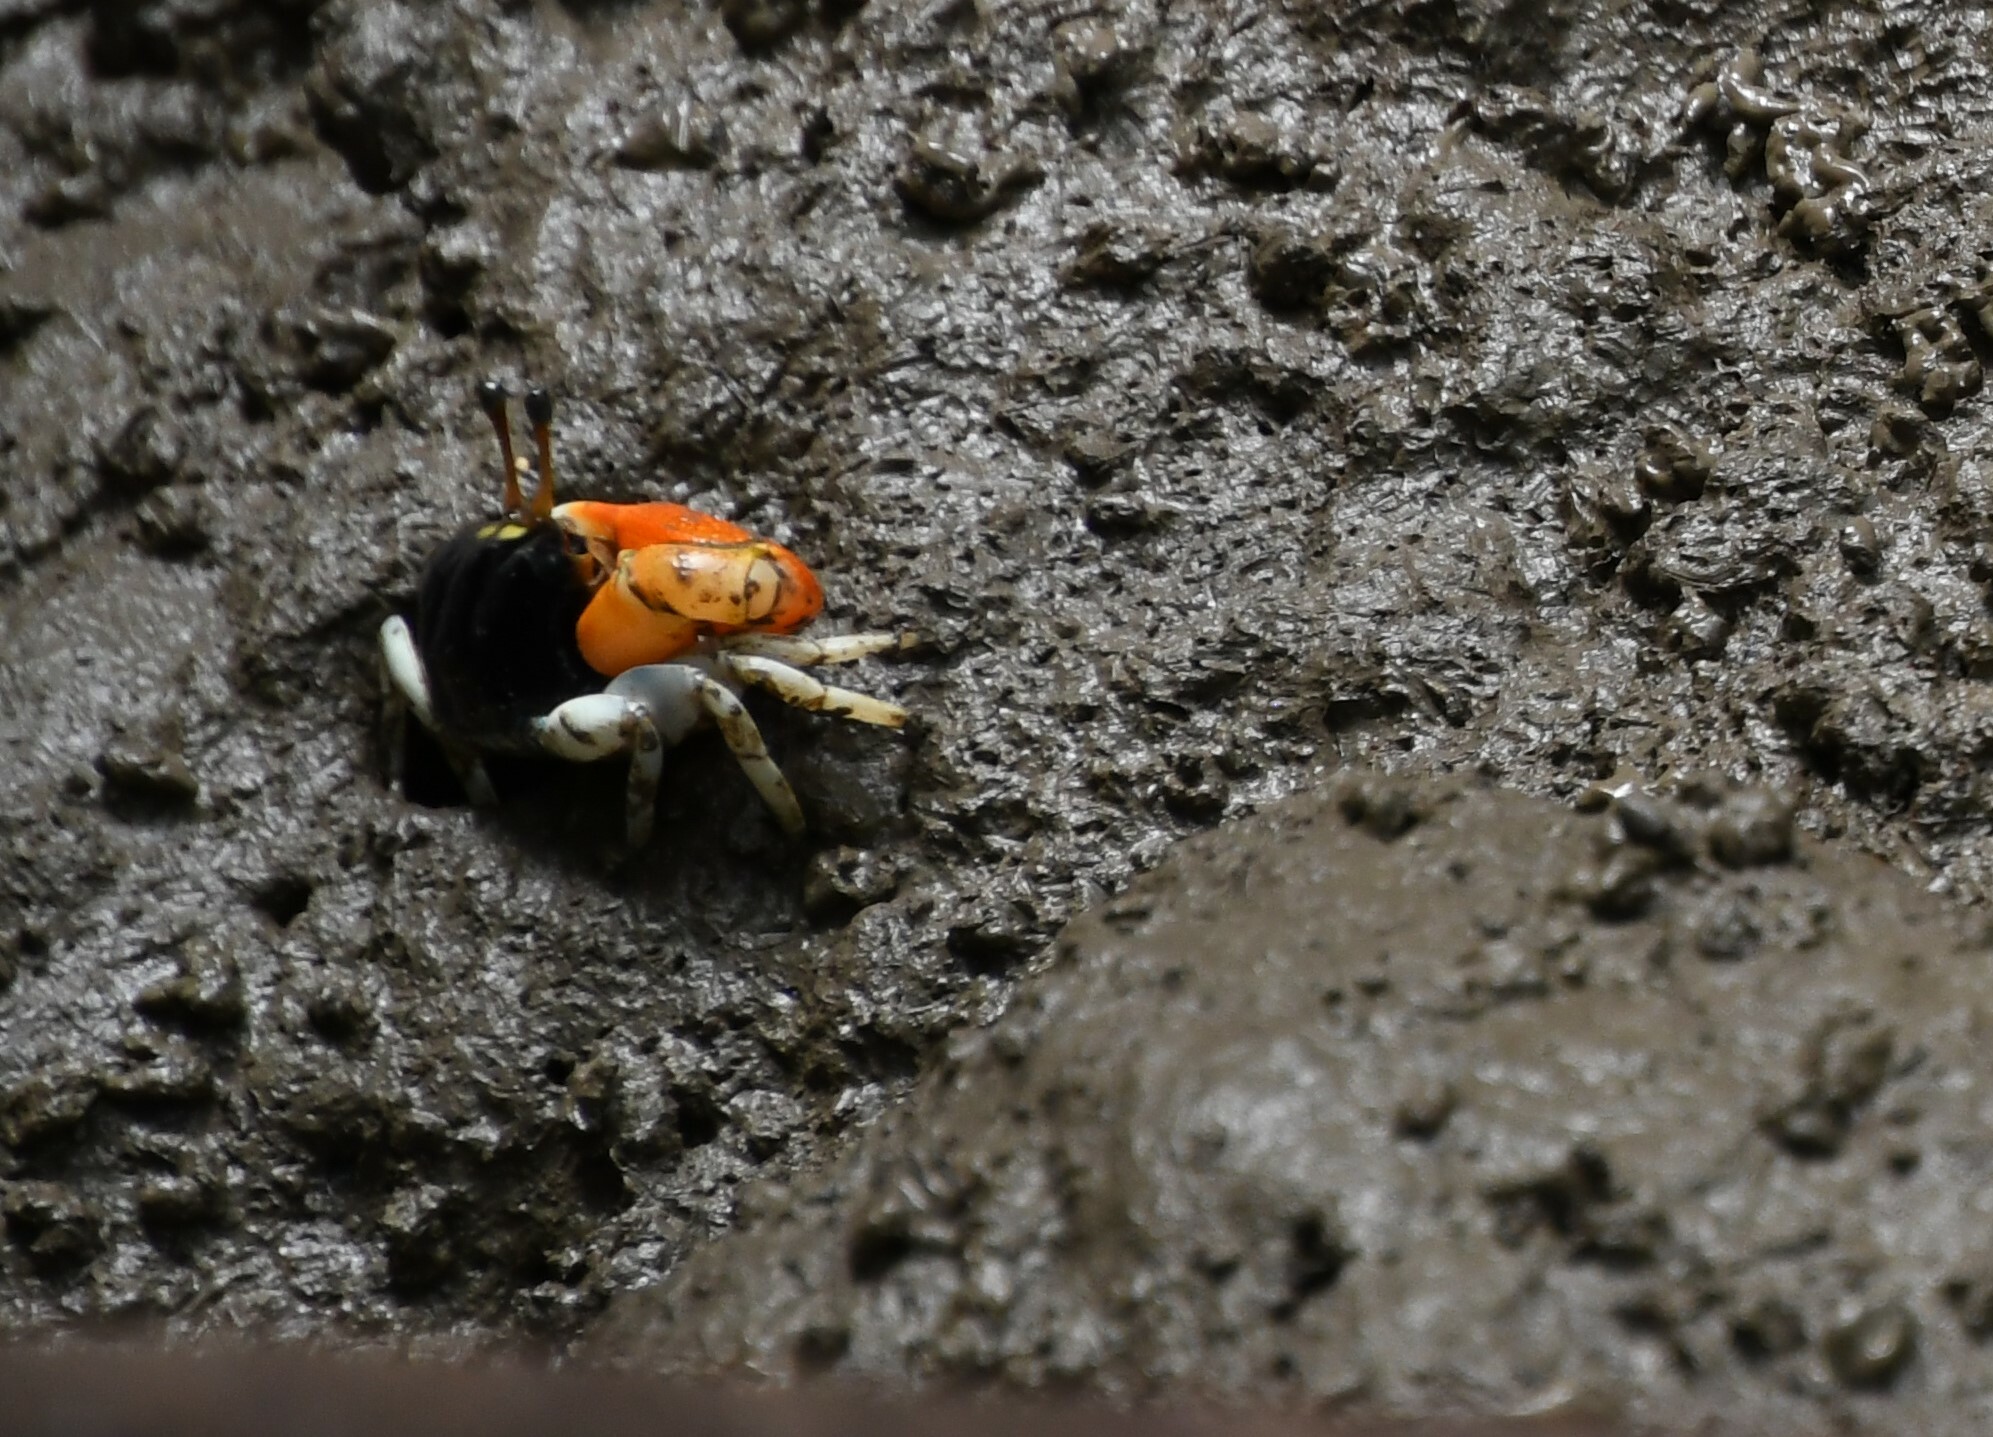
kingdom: Animalia
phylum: Arthropoda
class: Malacostraca
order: Decapoda
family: Ocypodidae
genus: Tubuca
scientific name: Tubuca coarctata
